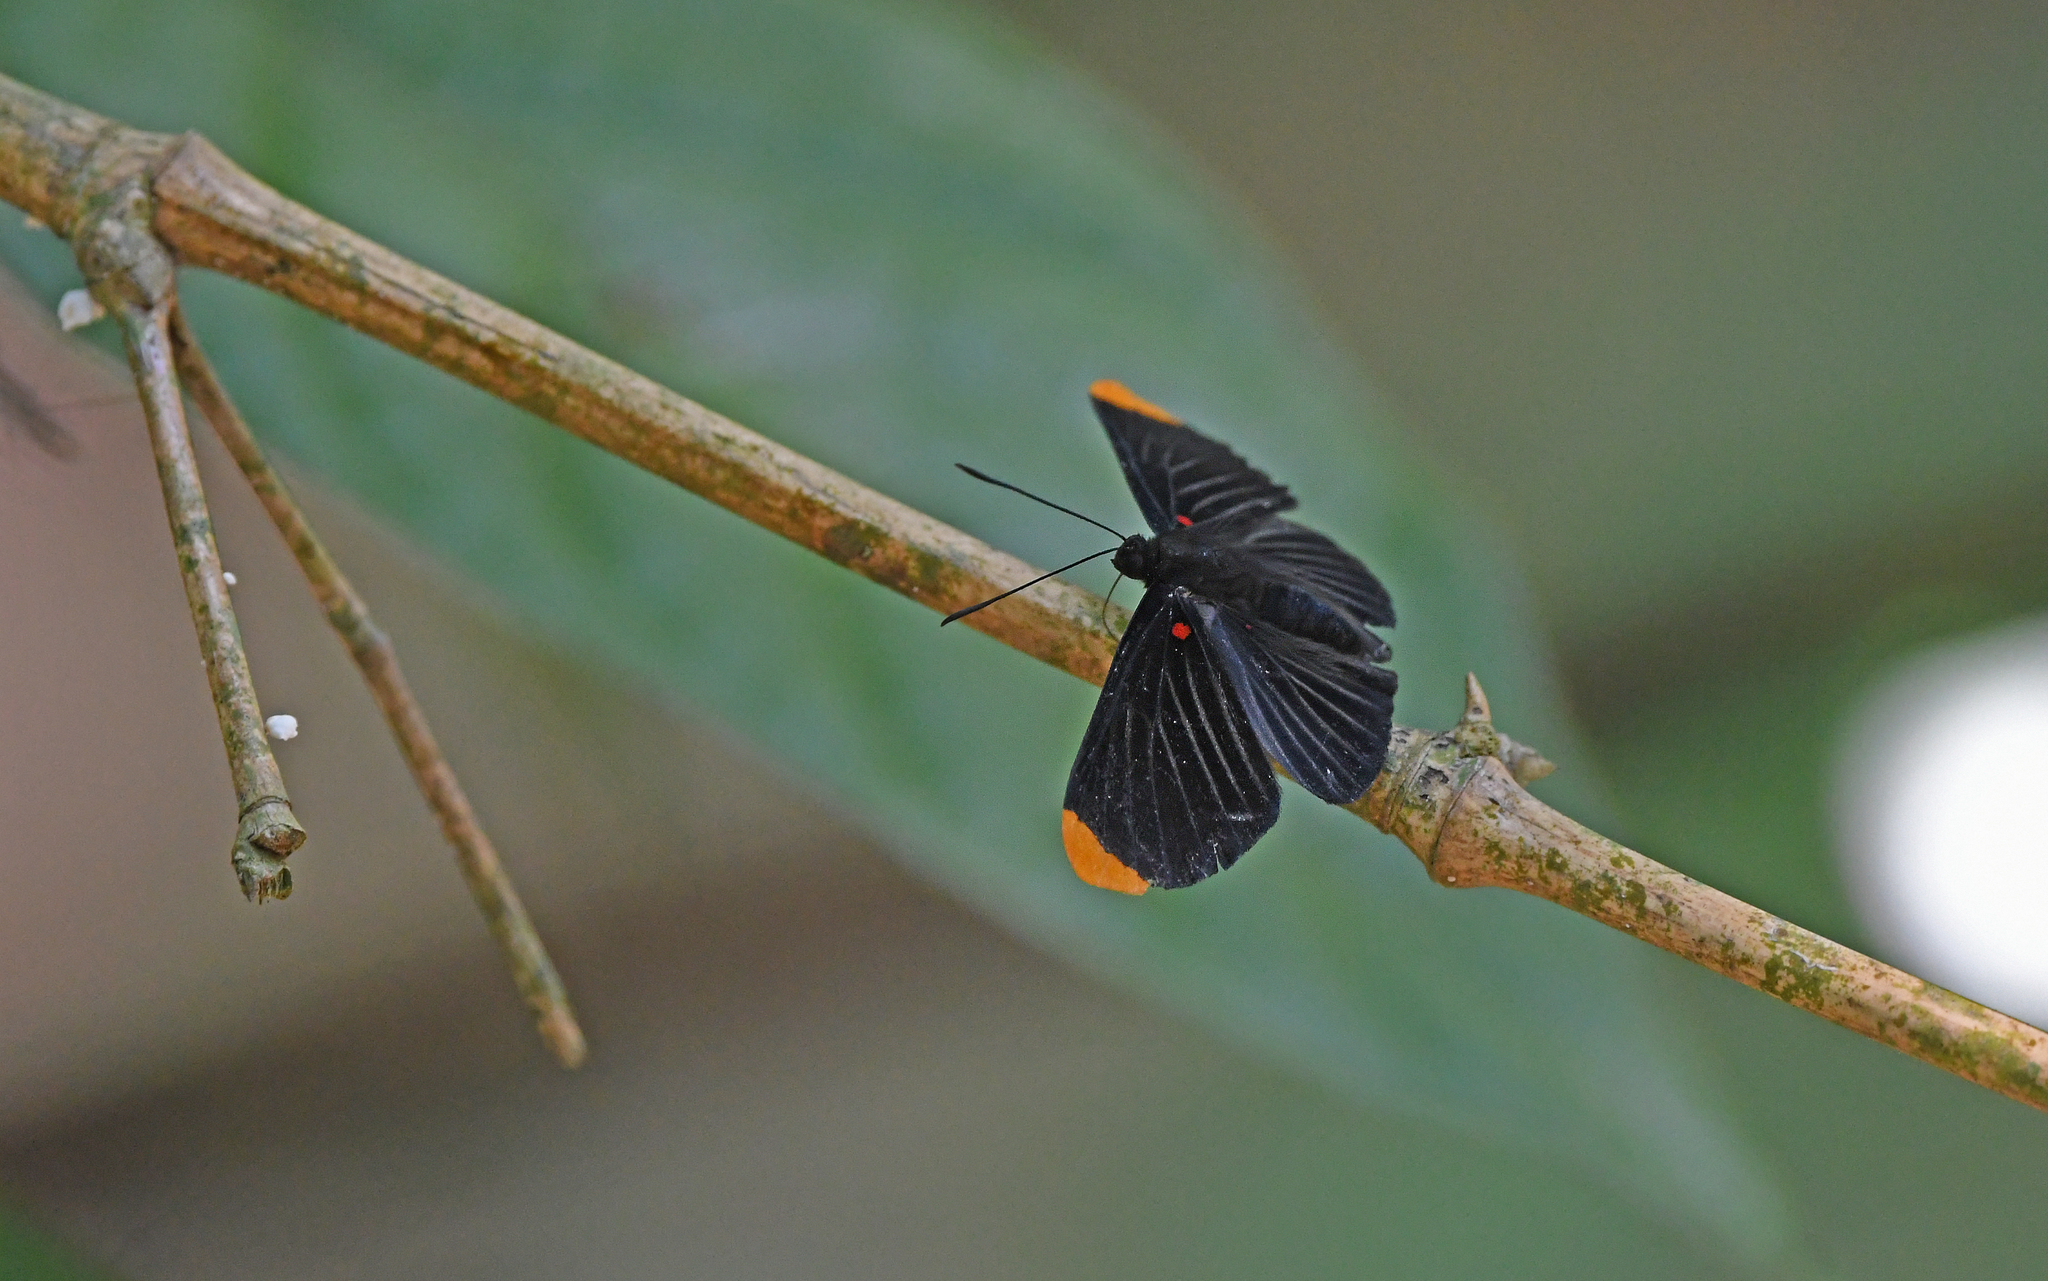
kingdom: Animalia
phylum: Arthropoda
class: Insecta
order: Lepidoptera
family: Lycaenidae
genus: Melanis
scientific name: Melanis smithiae
